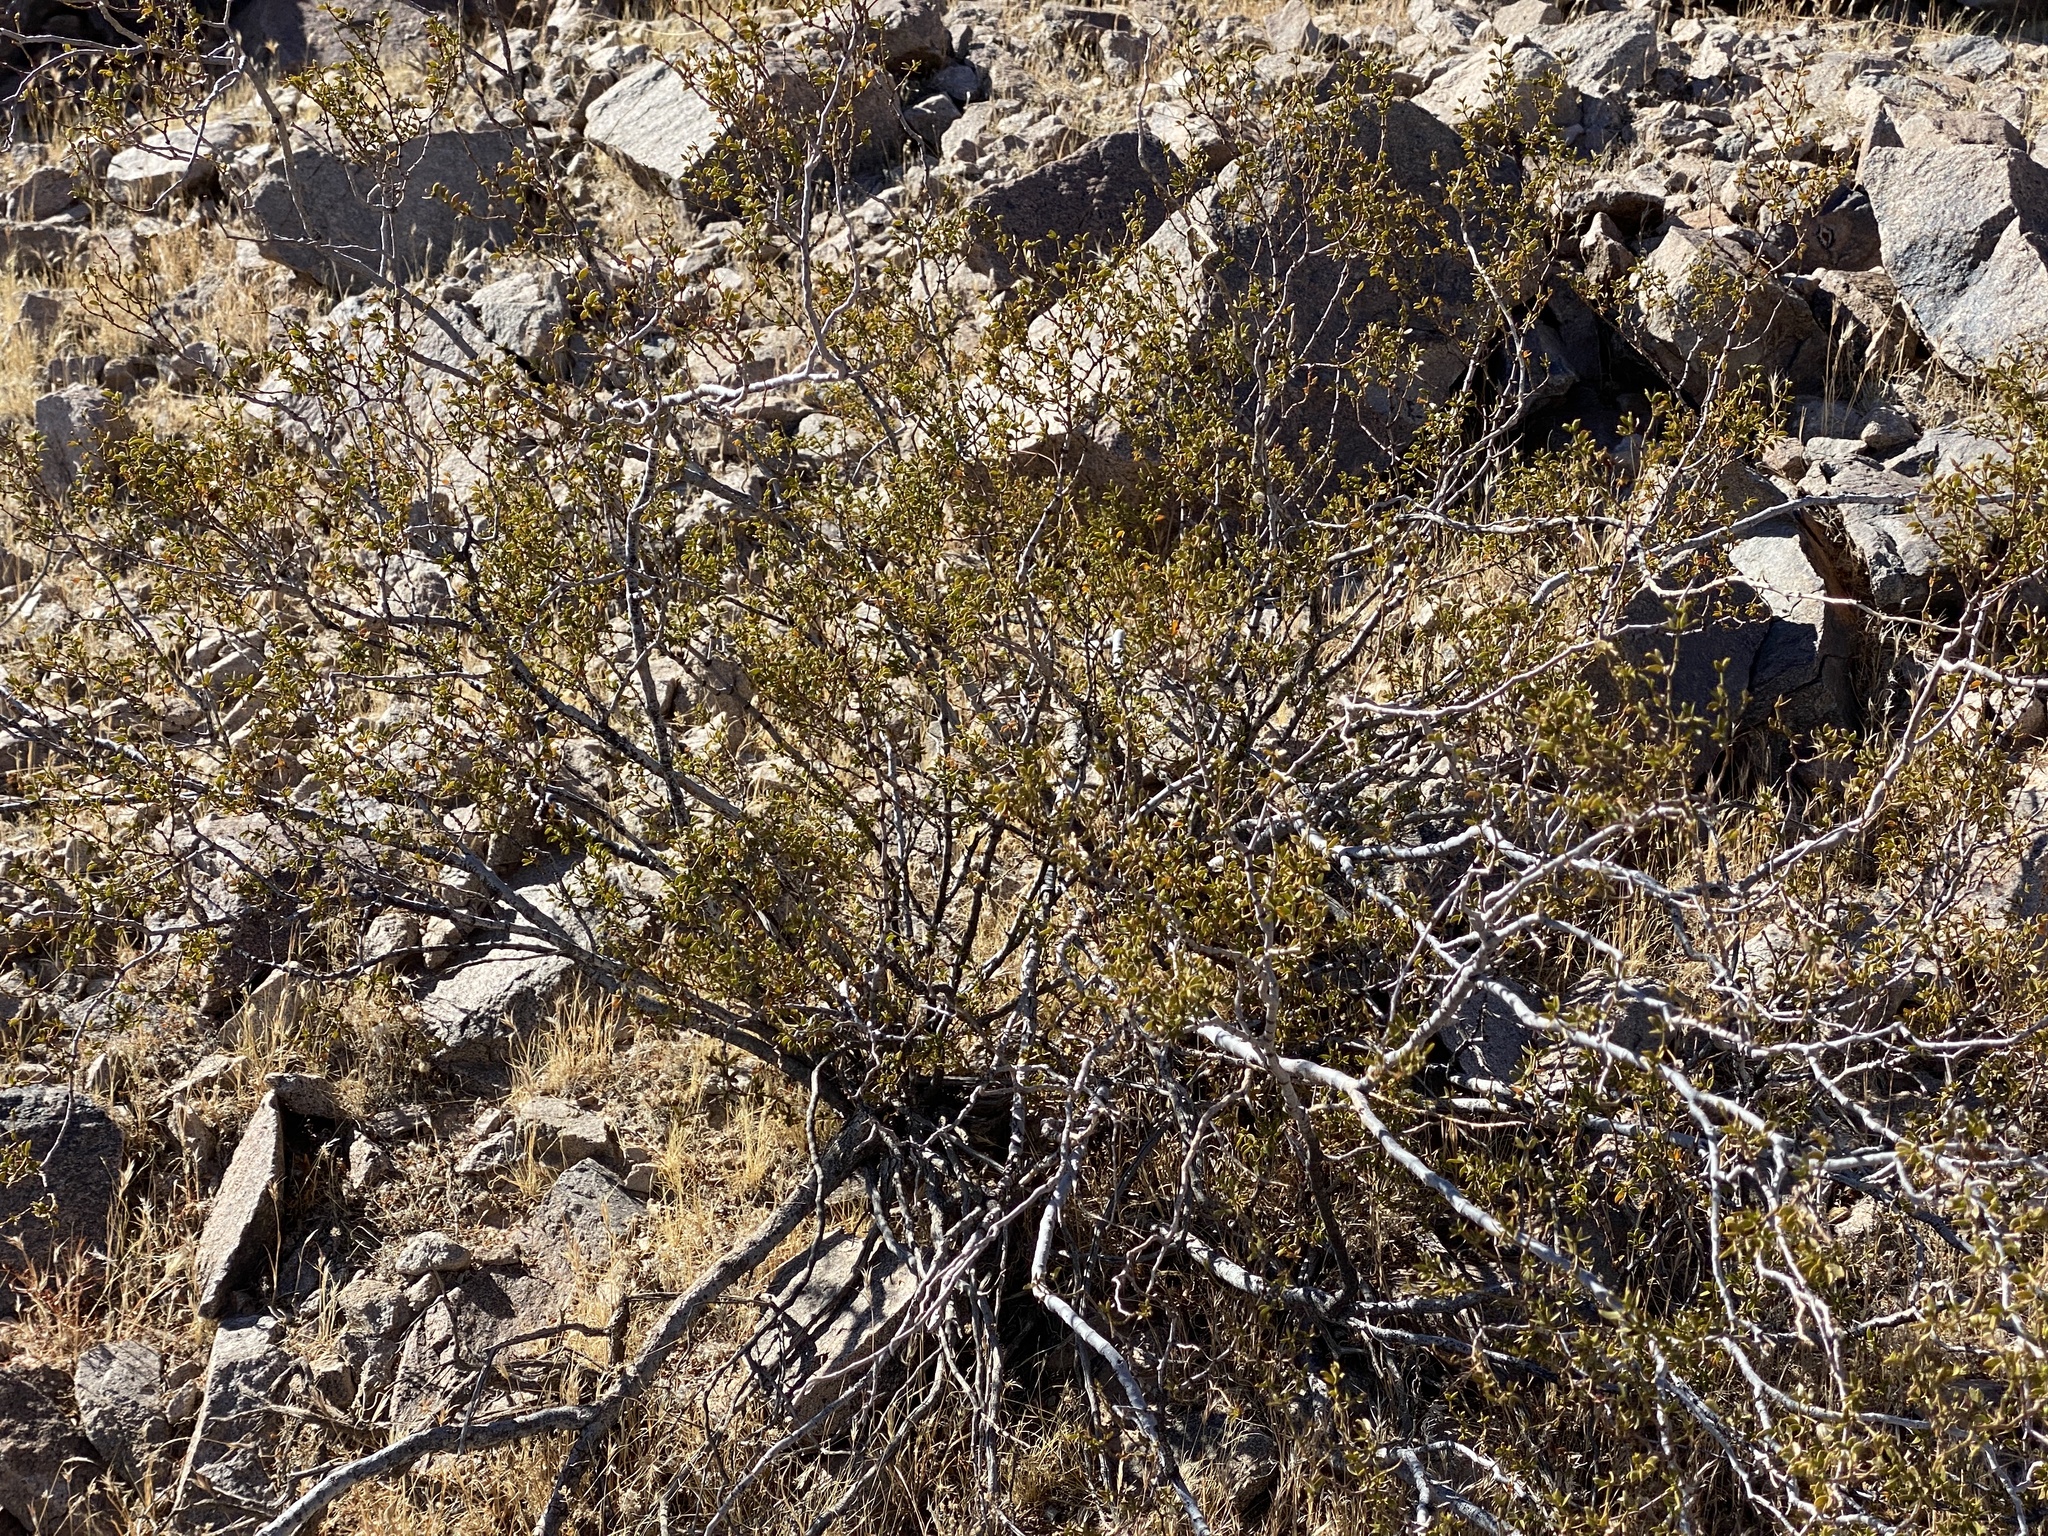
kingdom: Plantae
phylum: Tracheophyta
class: Magnoliopsida
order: Zygophyllales
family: Zygophyllaceae
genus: Larrea
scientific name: Larrea tridentata
